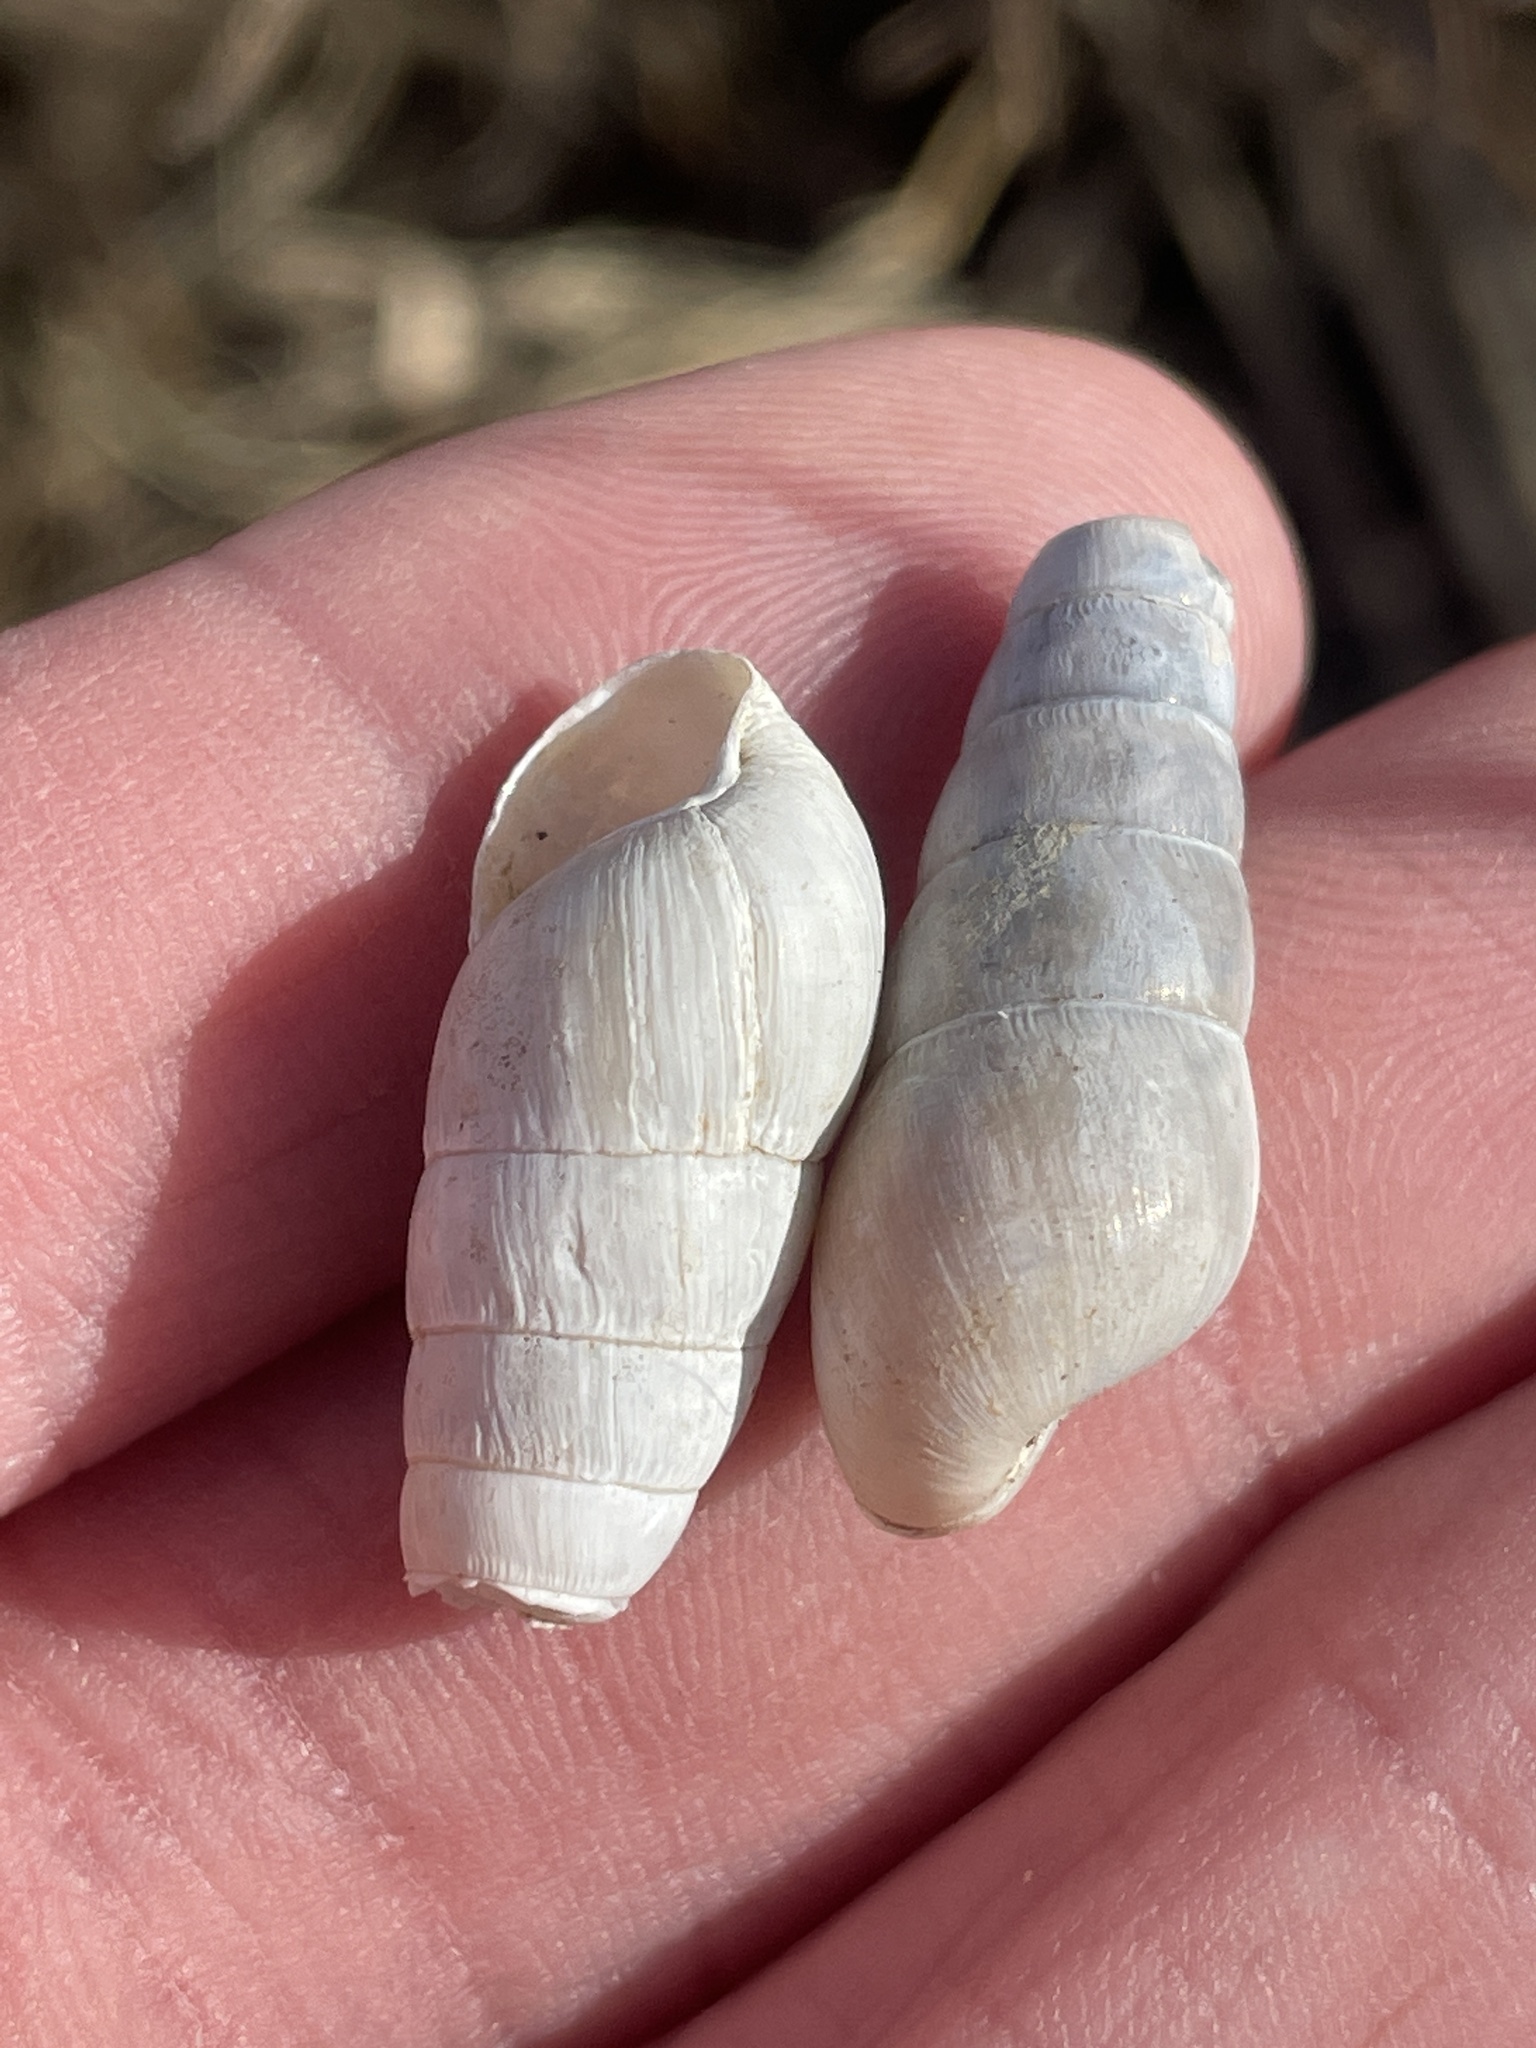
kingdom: Animalia
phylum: Mollusca
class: Gastropoda
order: Stylommatophora
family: Achatinidae
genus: Rumina
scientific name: Rumina decollata
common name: Decollate snail
